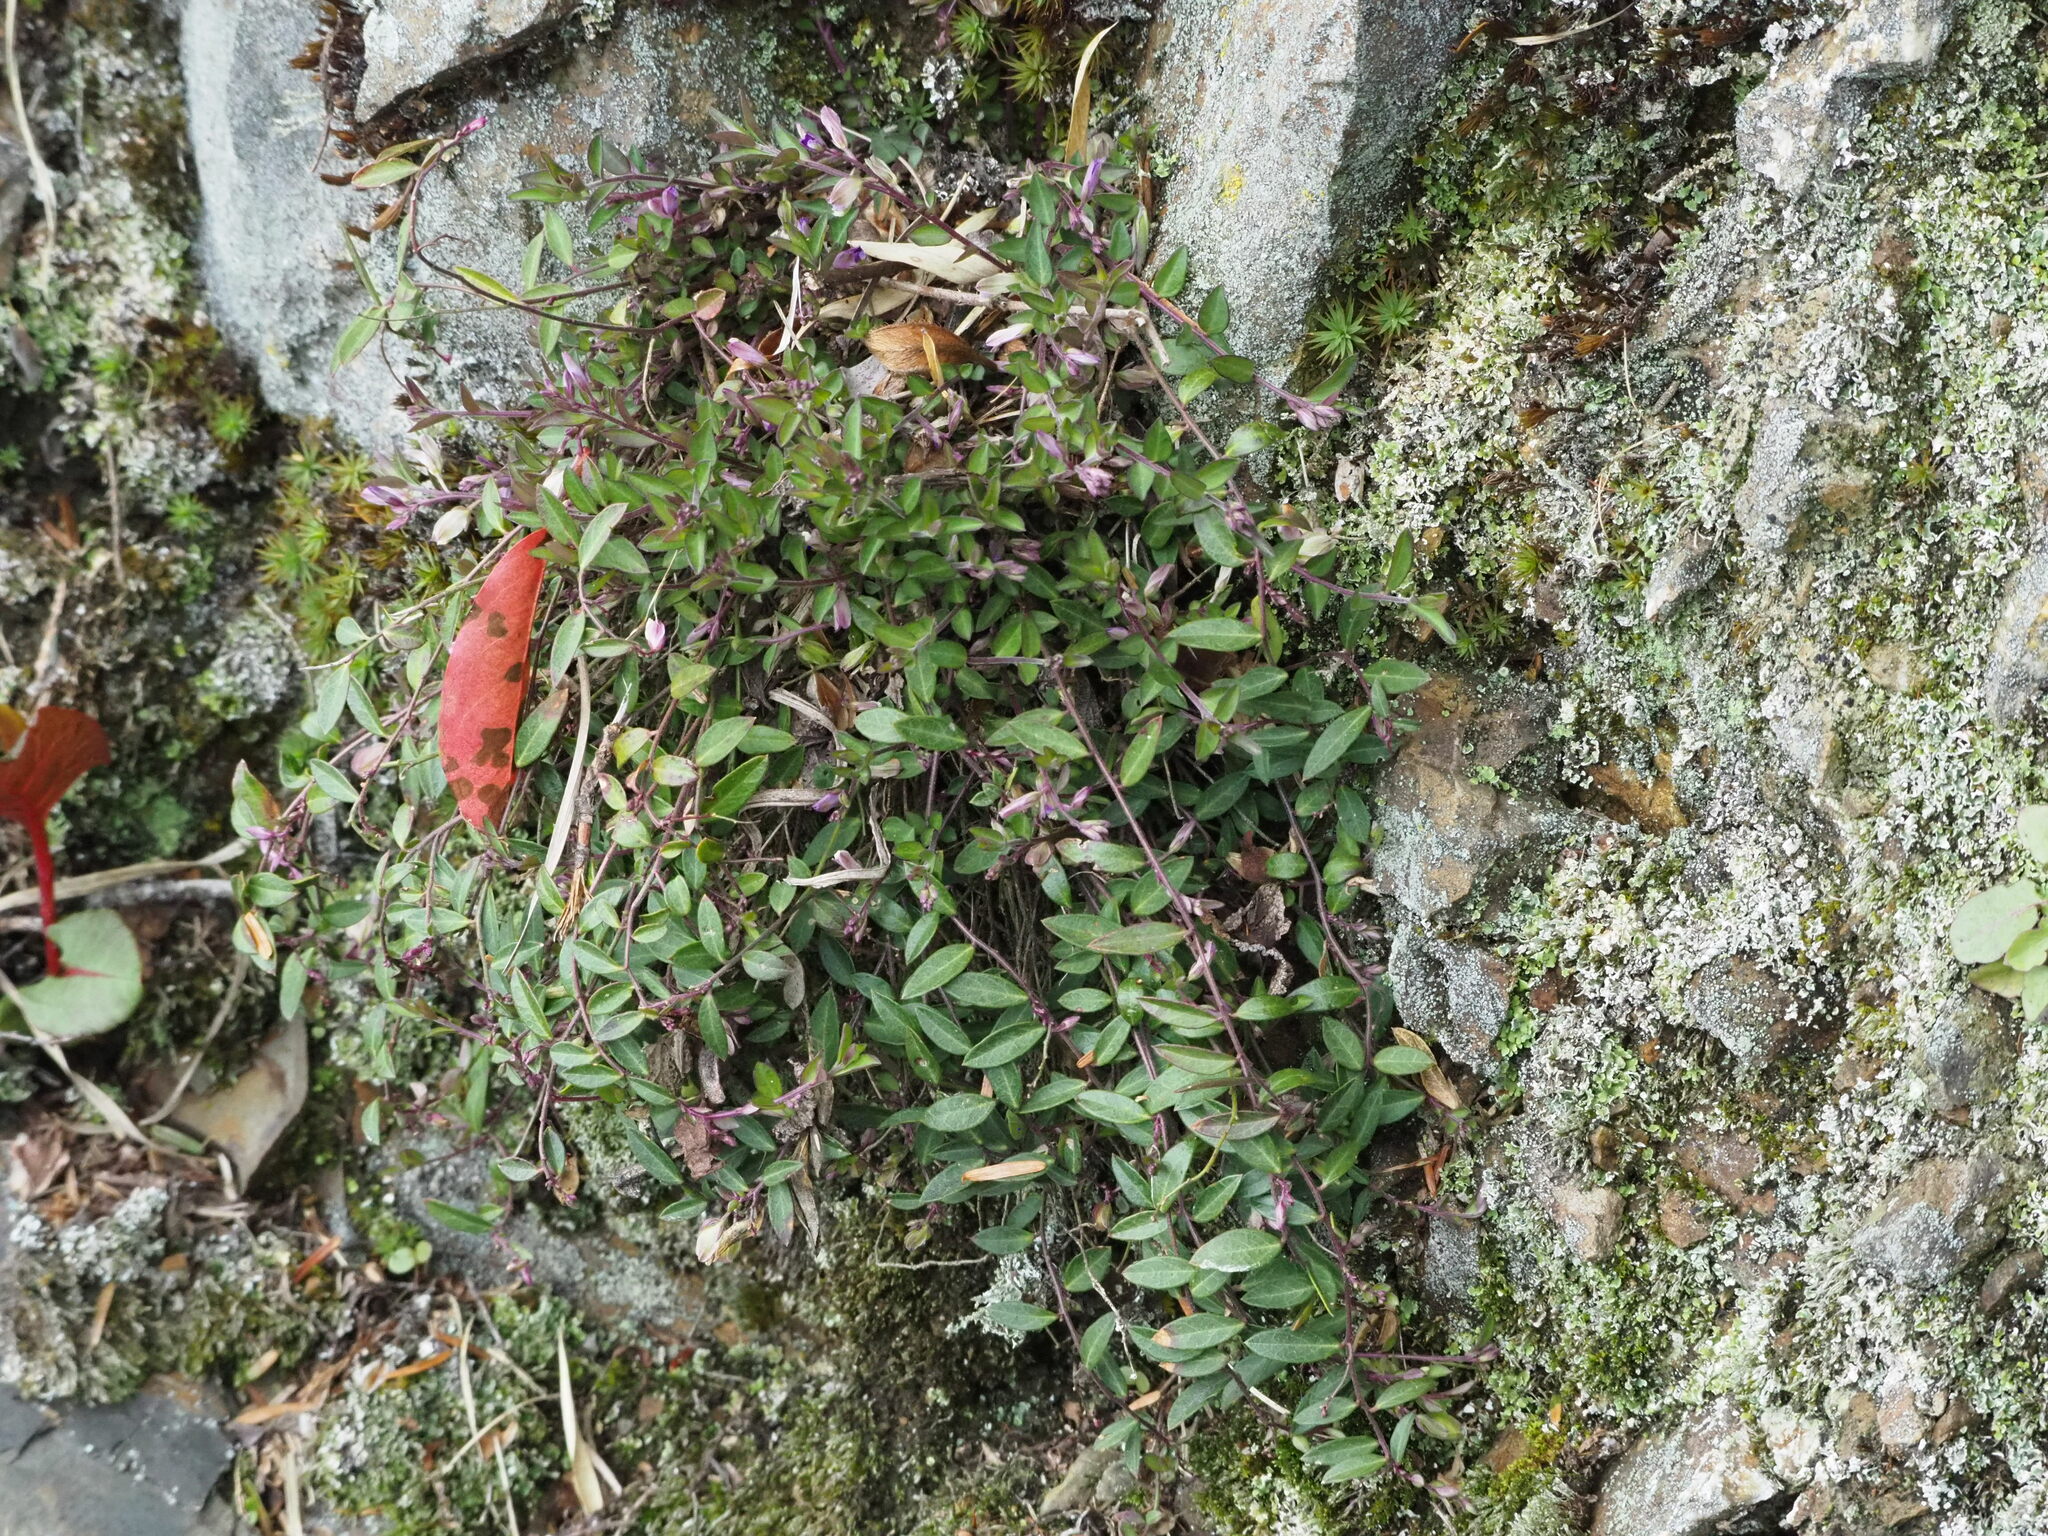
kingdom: Plantae
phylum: Tracheophyta
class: Magnoliopsida
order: Fabales
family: Polygalaceae
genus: Polygala
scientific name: Polygala japonica
